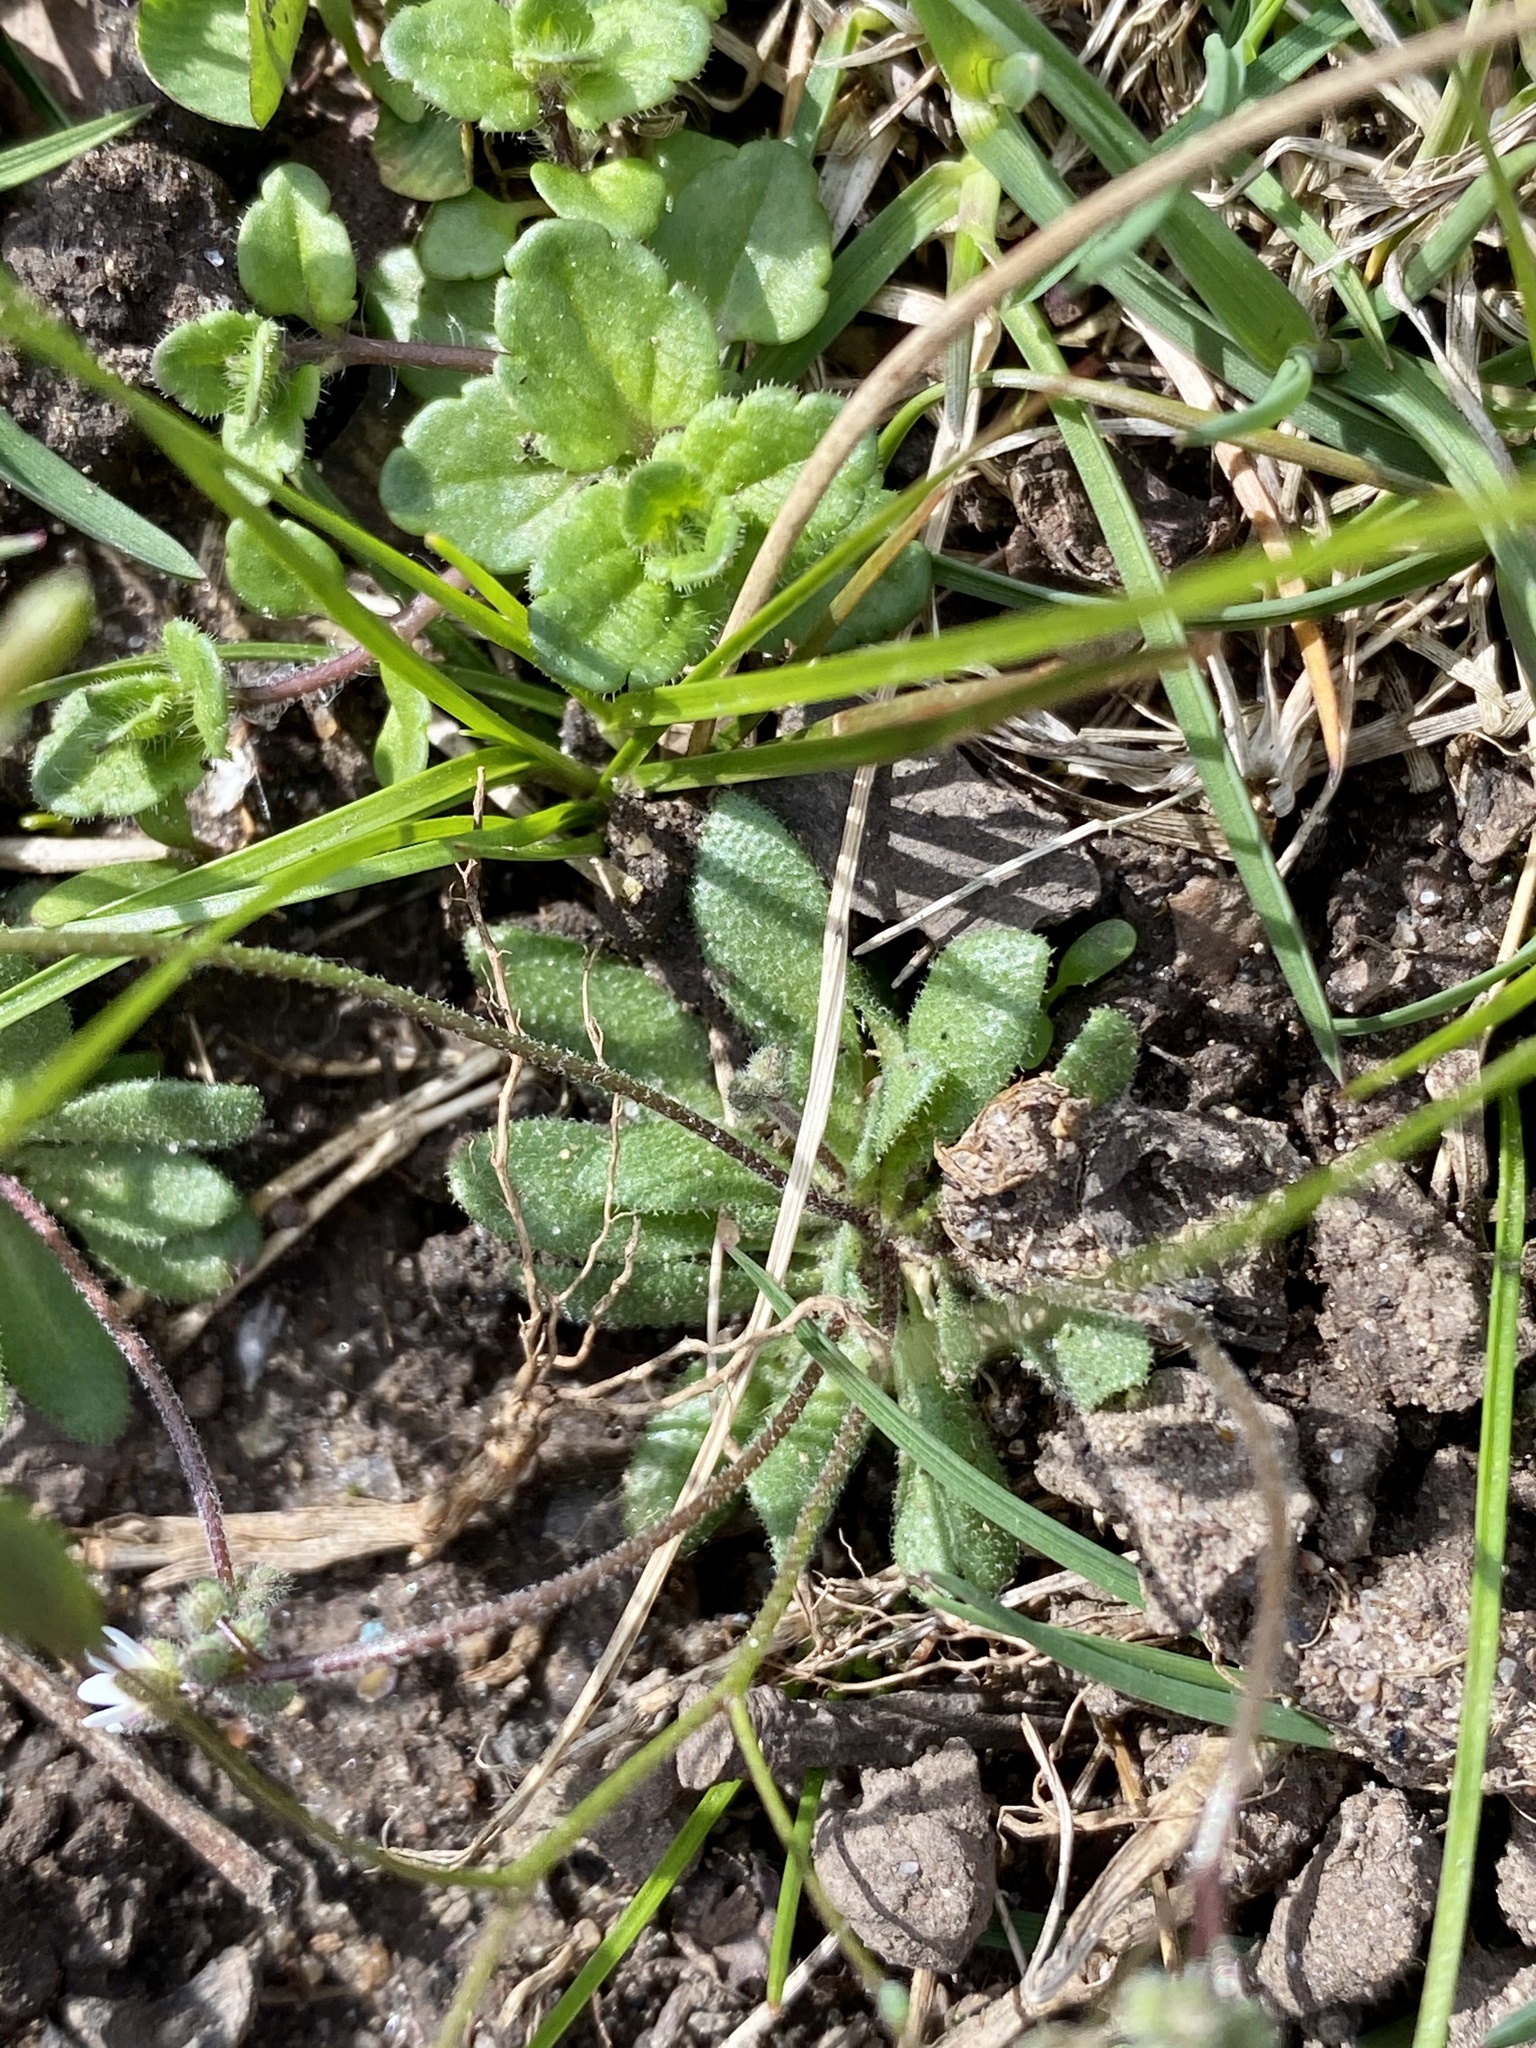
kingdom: Plantae
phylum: Tracheophyta
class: Magnoliopsida
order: Brassicales
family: Brassicaceae
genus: Draba
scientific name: Draba verna
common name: Spring draba
